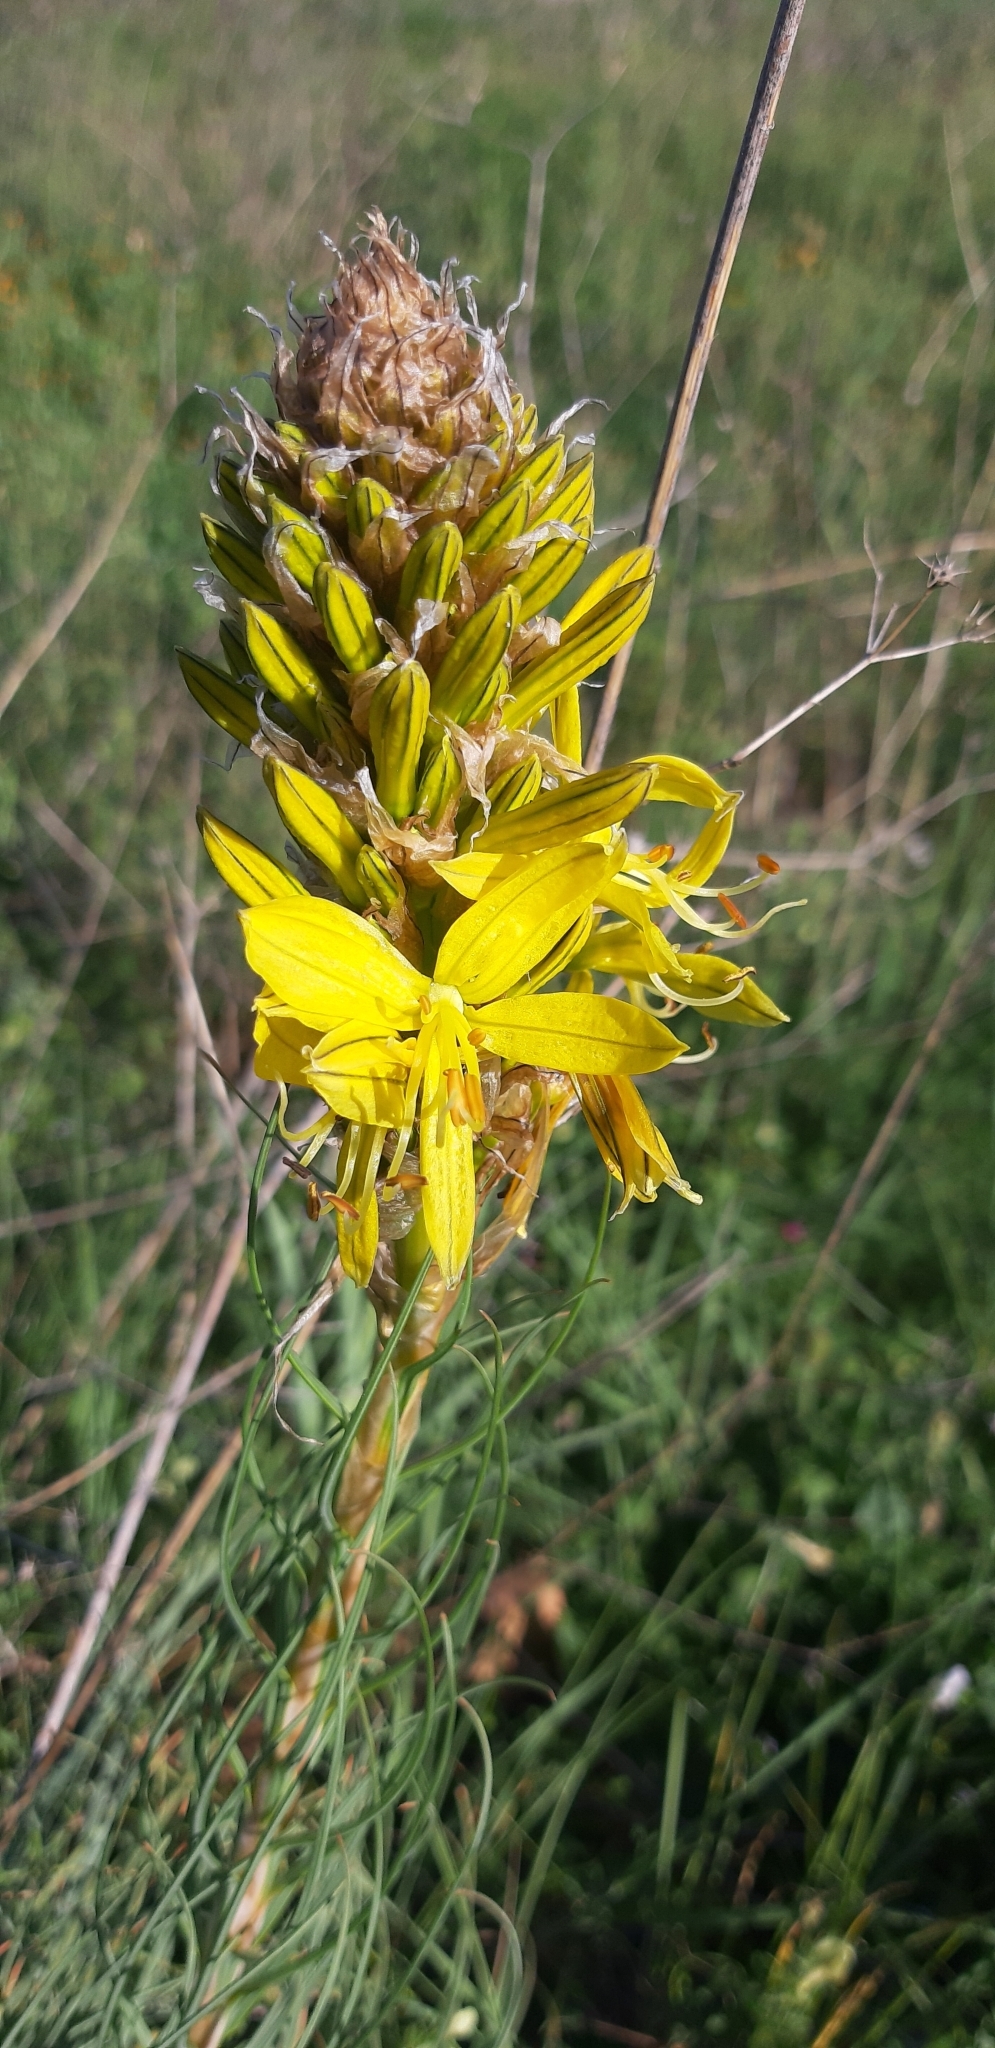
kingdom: Plantae
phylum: Tracheophyta
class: Liliopsida
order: Asparagales
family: Asphodelaceae
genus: Asphodeline
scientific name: Asphodeline lutea
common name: Yellow asphodel
